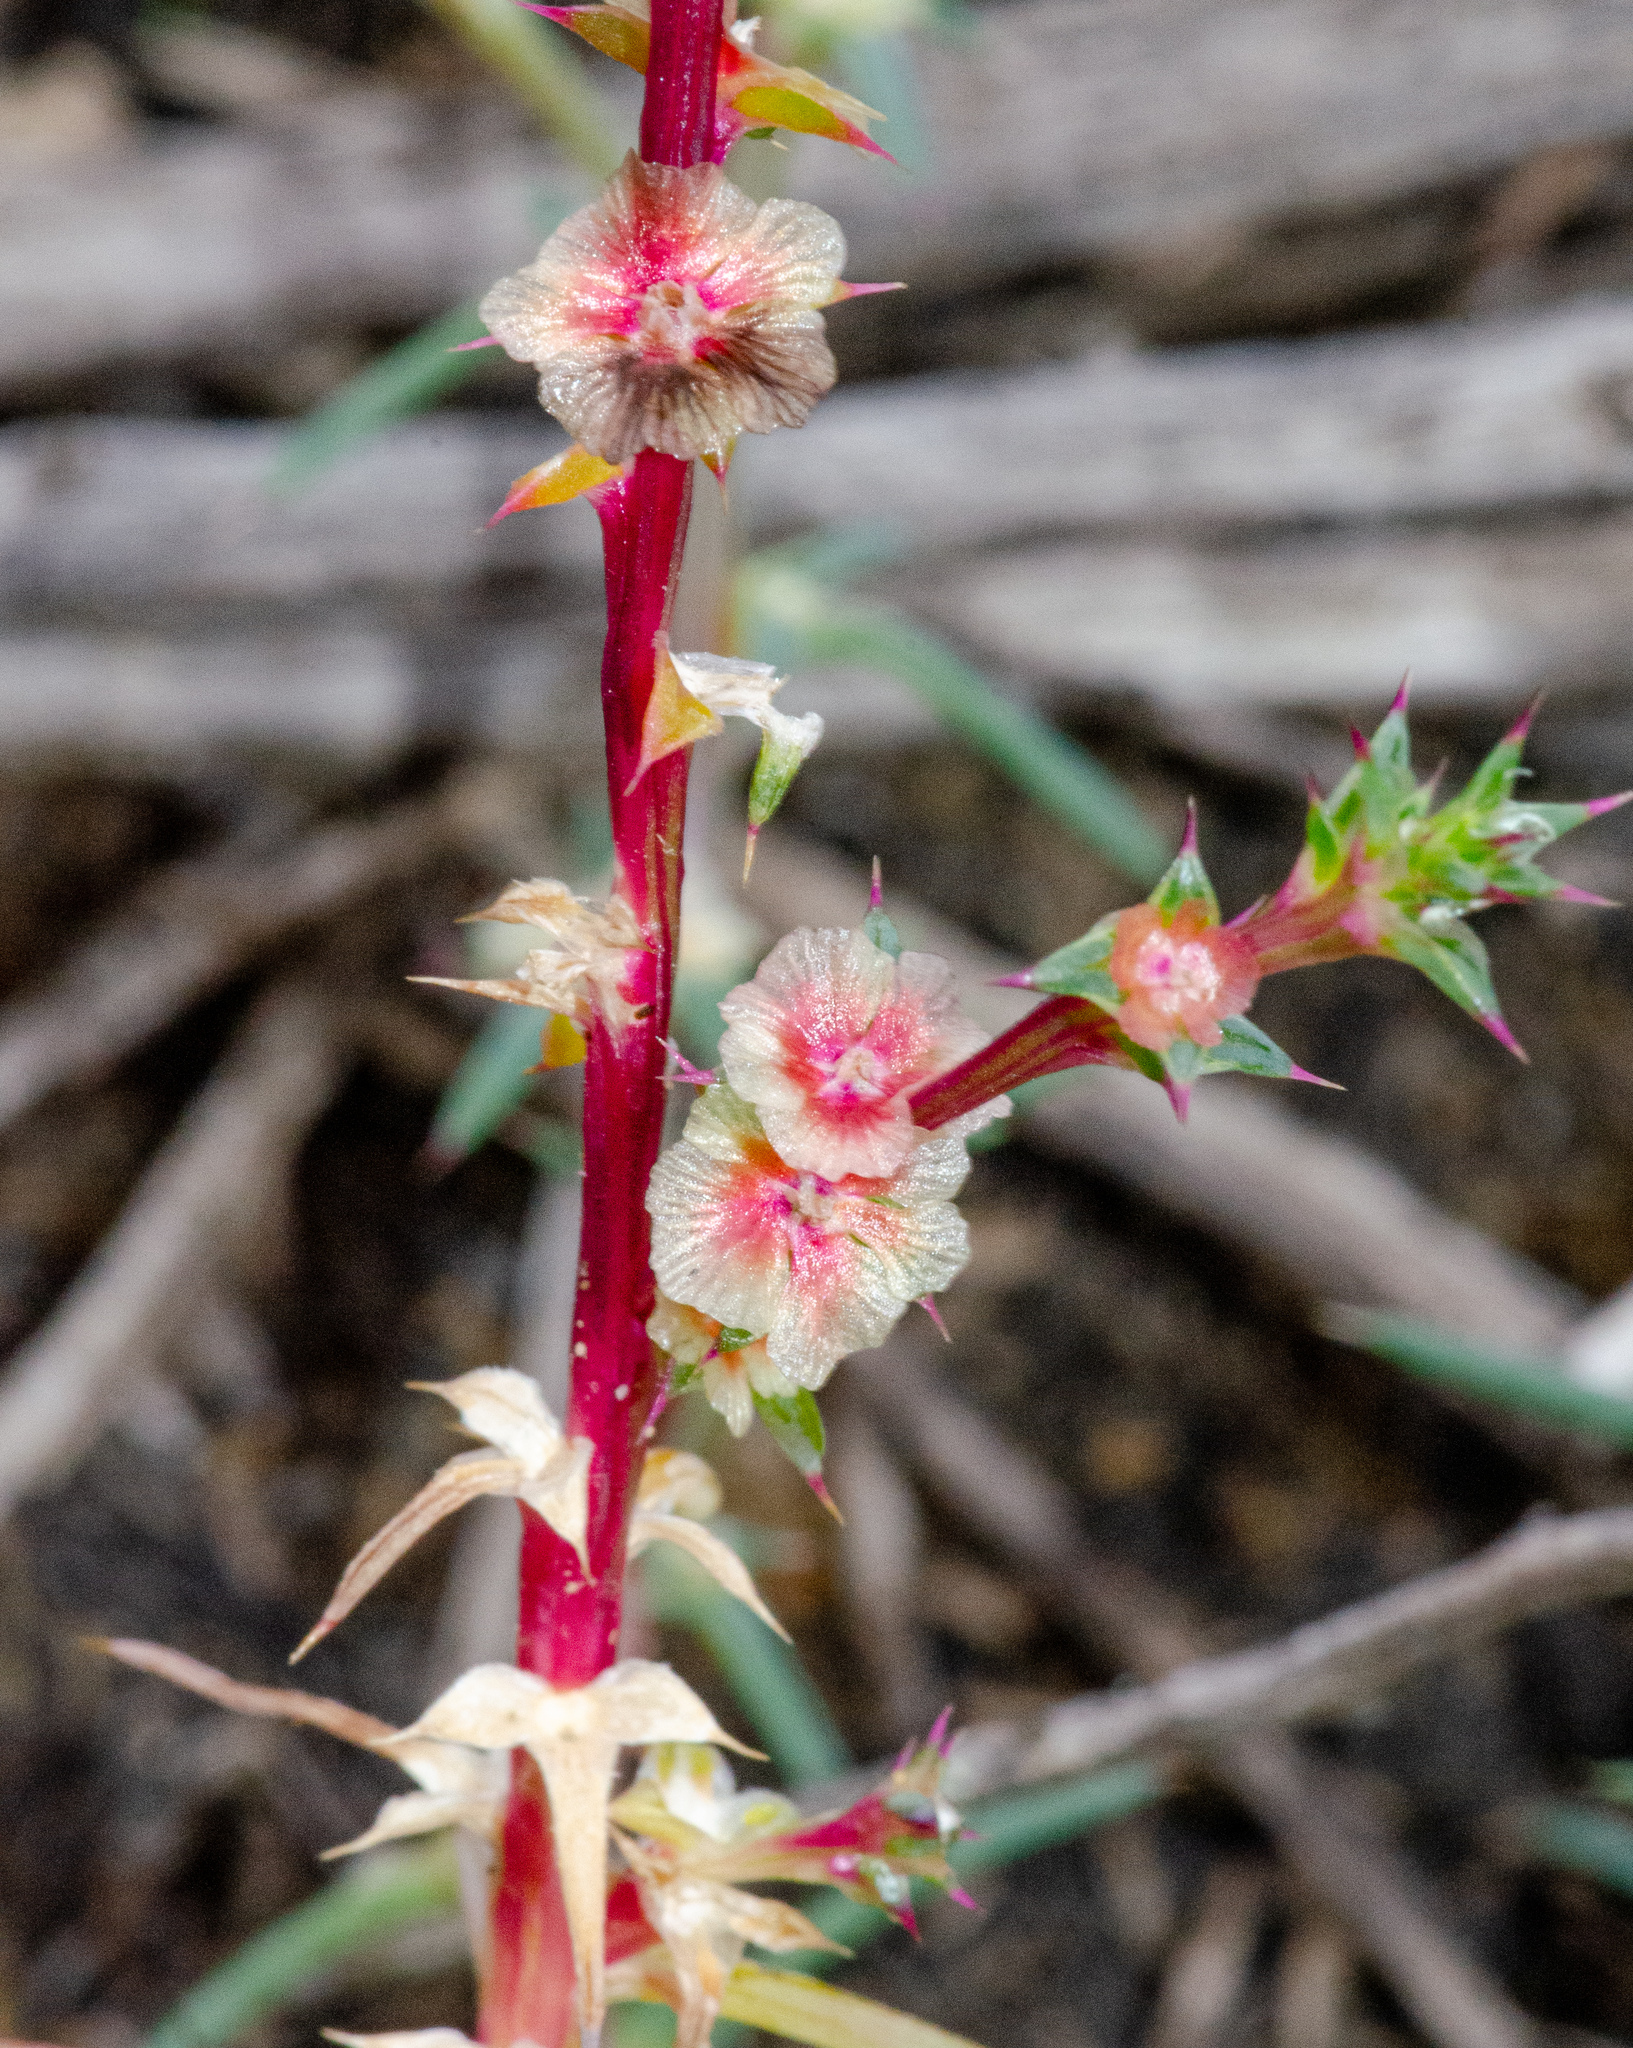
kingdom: Plantae
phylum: Tracheophyta
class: Magnoliopsida
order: Caryophyllales
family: Amaranthaceae
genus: Salsola
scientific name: Salsola australis
